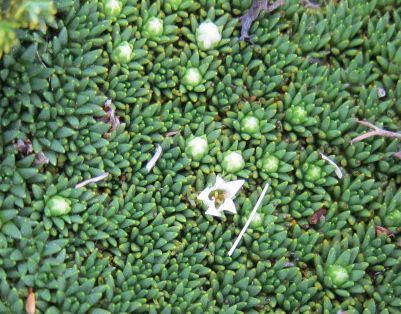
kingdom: Plantae
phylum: Tracheophyta
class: Magnoliopsida
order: Asterales
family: Stylidiaceae
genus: Donatia
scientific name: Donatia novae-zelandiae
